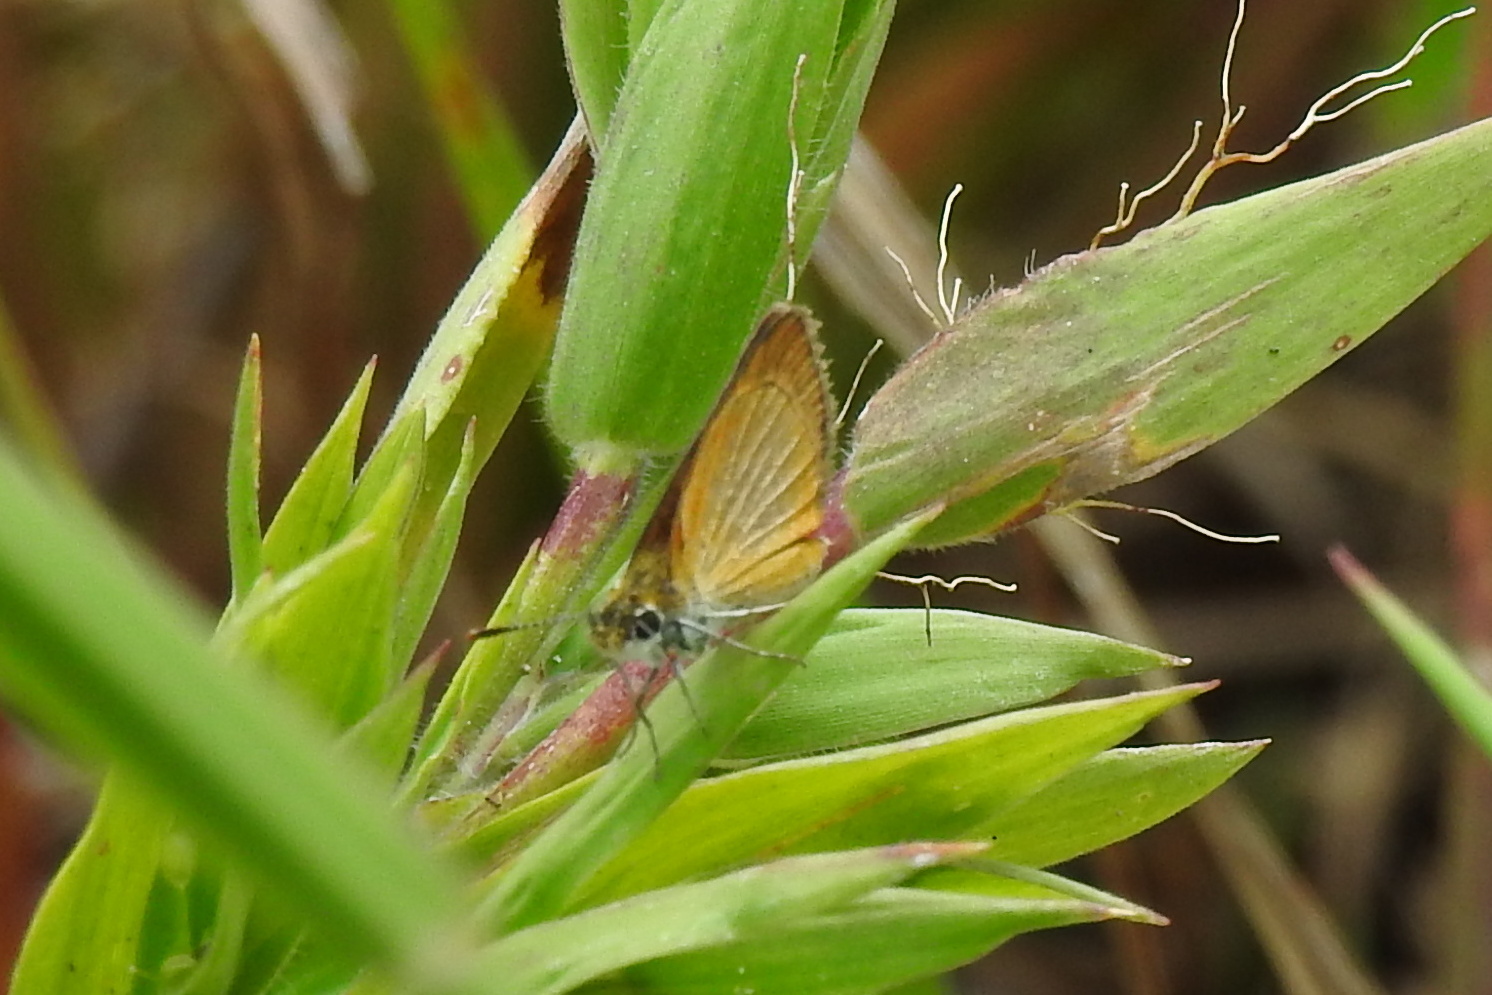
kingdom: Animalia
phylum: Arthropoda
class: Insecta
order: Lepidoptera
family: Hesperiidae
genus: Ancyloxypha
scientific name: Ancyloxypha numitor
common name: Least skipper
